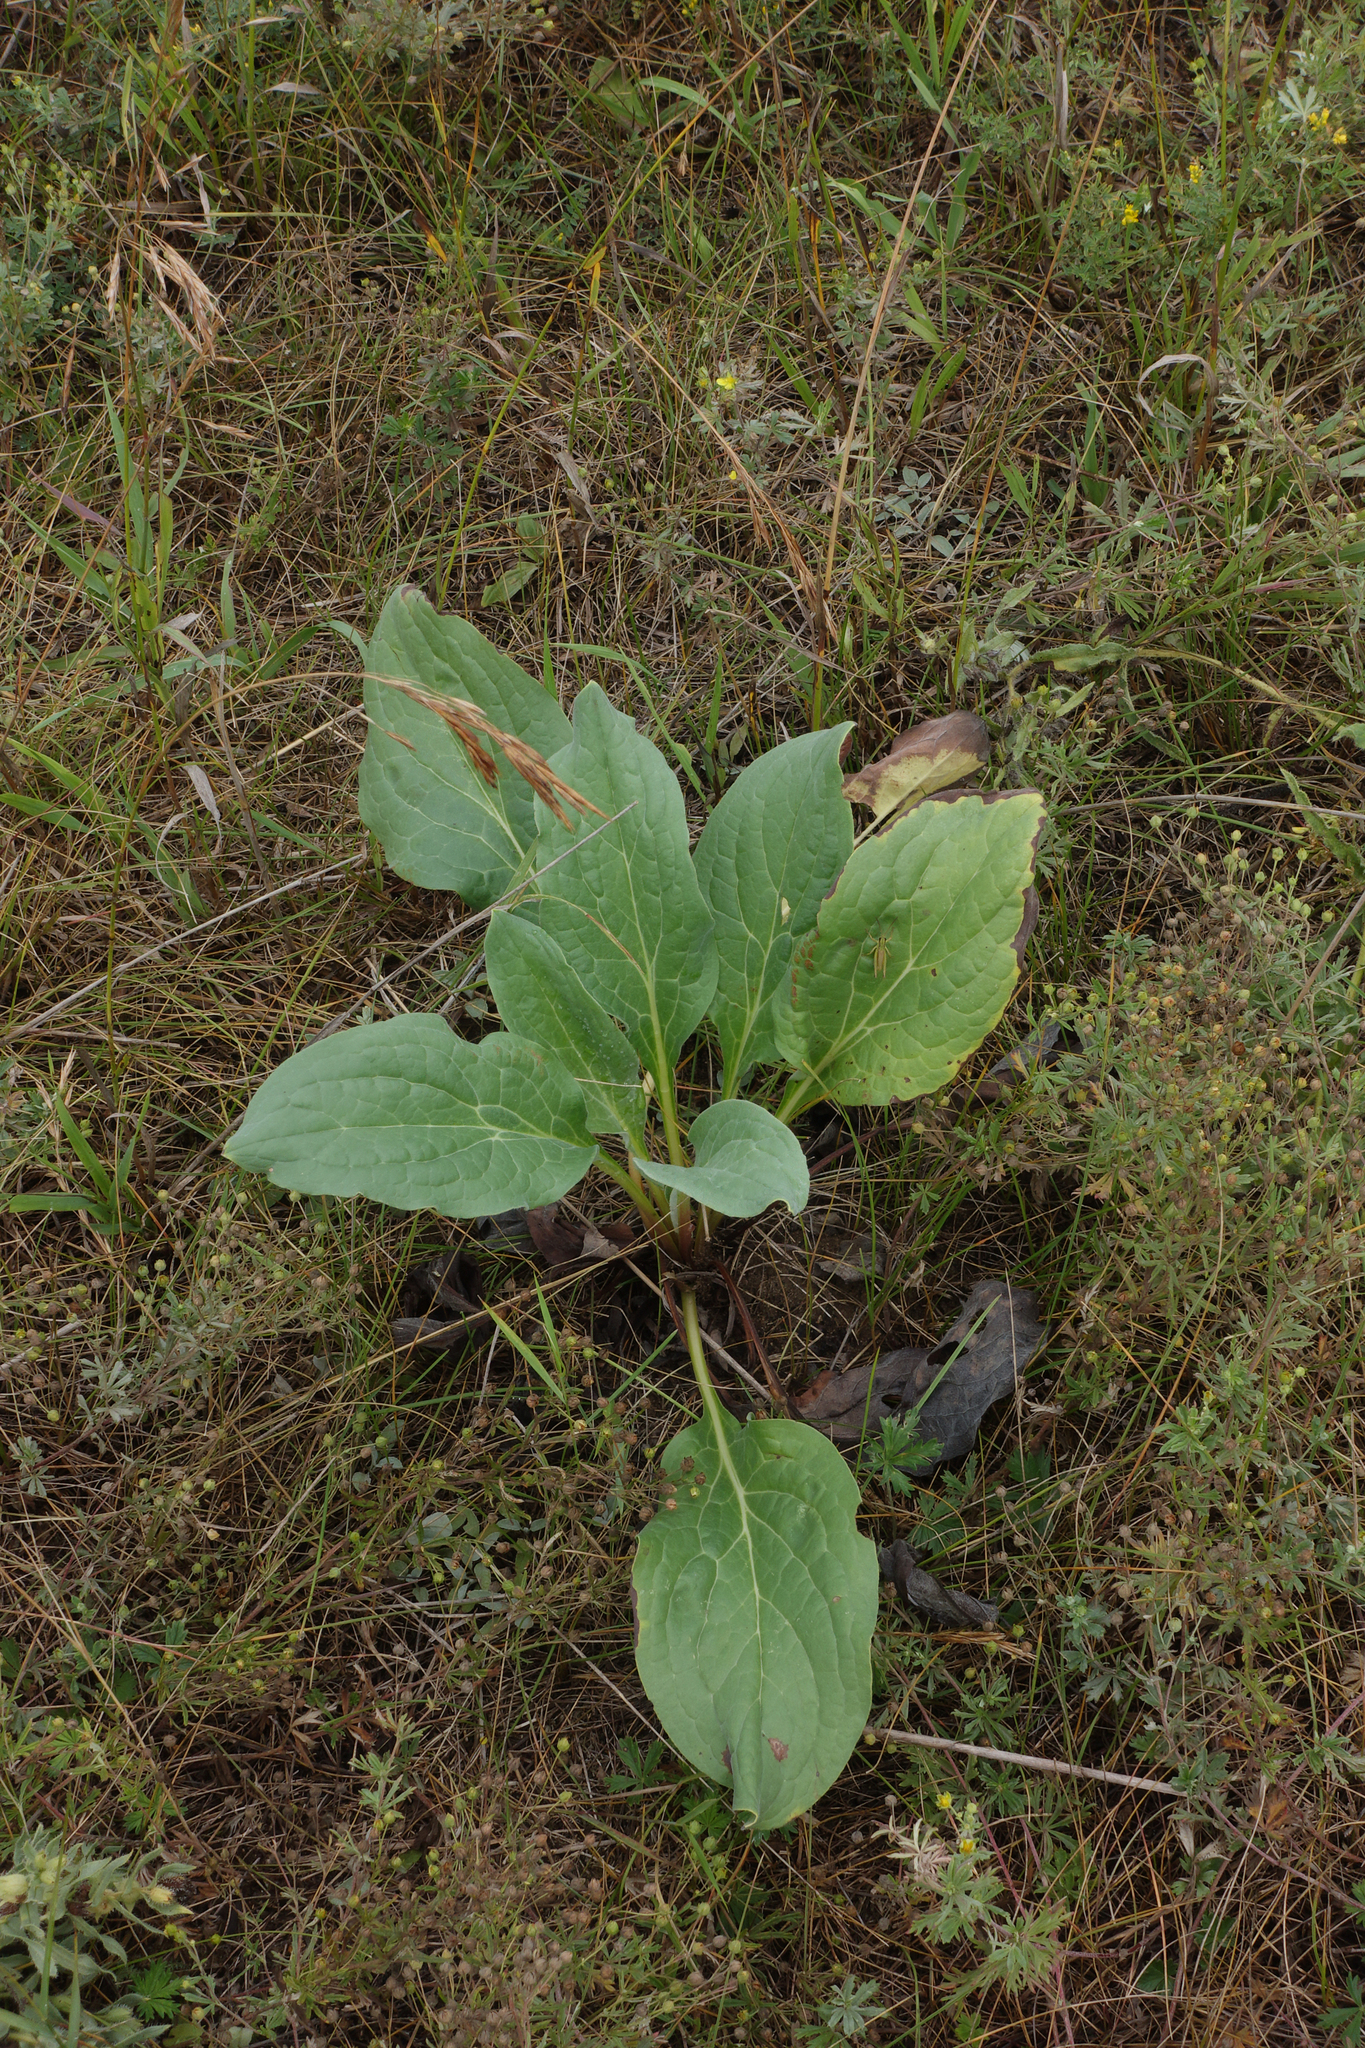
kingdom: Plantae
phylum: Tracheophyta
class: Magnoliopsida
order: Boraginales
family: Boraginaceae
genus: Cynoglossum
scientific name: Cynoglossum officinale
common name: Hound's-tongue
